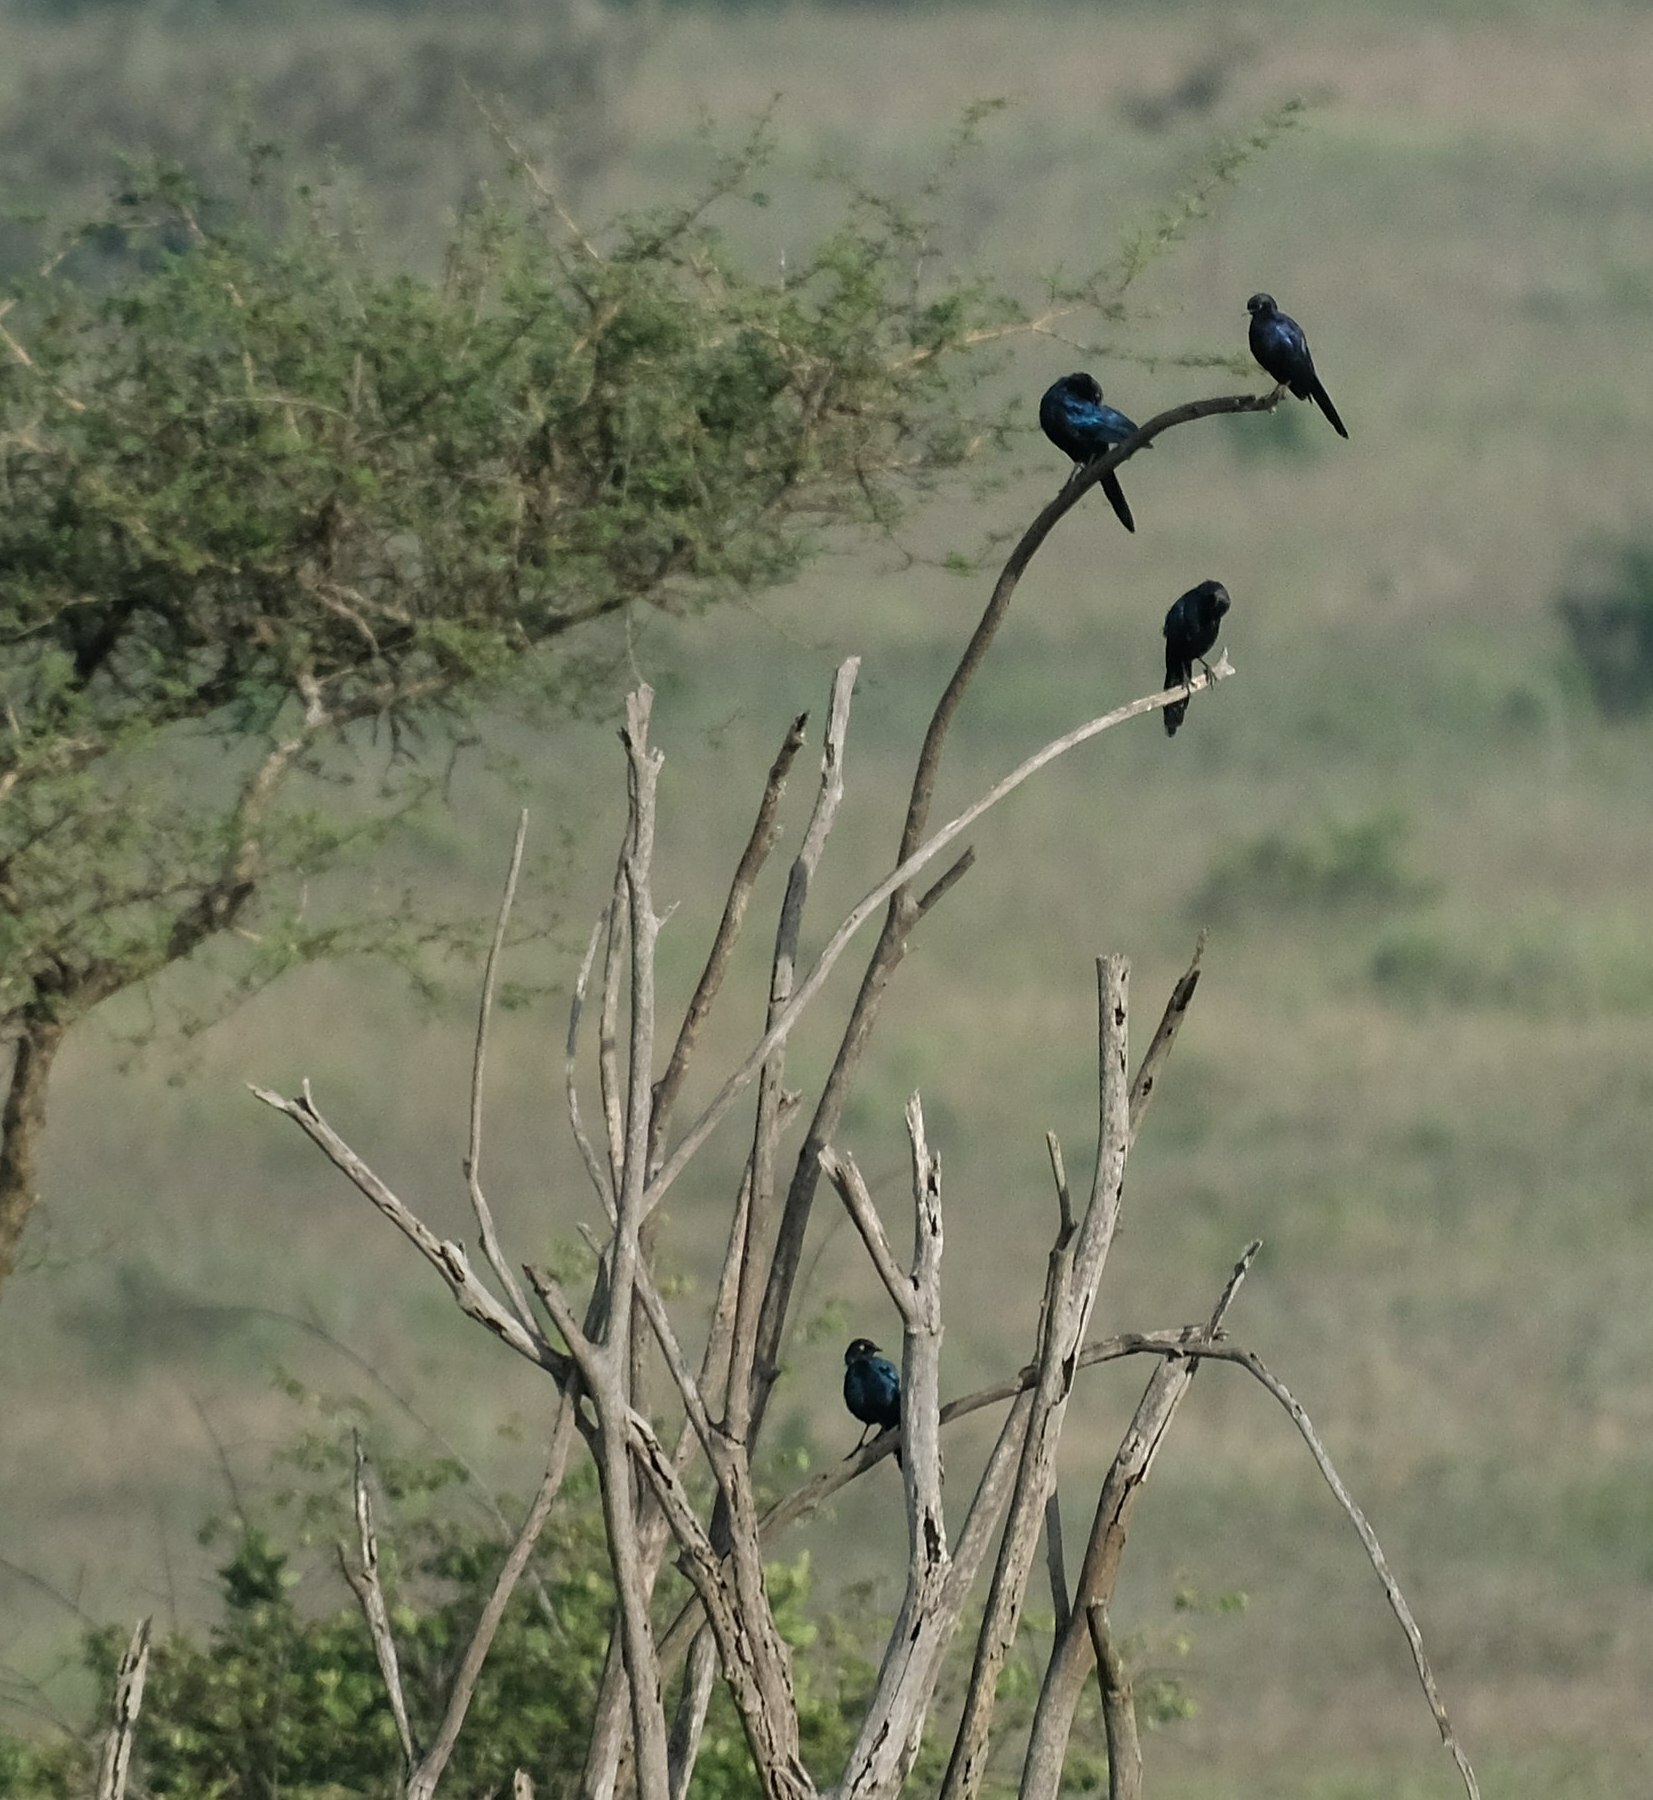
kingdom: Animalia
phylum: Chordata
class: Aves
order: Passeriformes
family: Sturnidae
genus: Lamprotornis
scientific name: Lamprotornis purpuroptera
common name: Rüppell's starling
